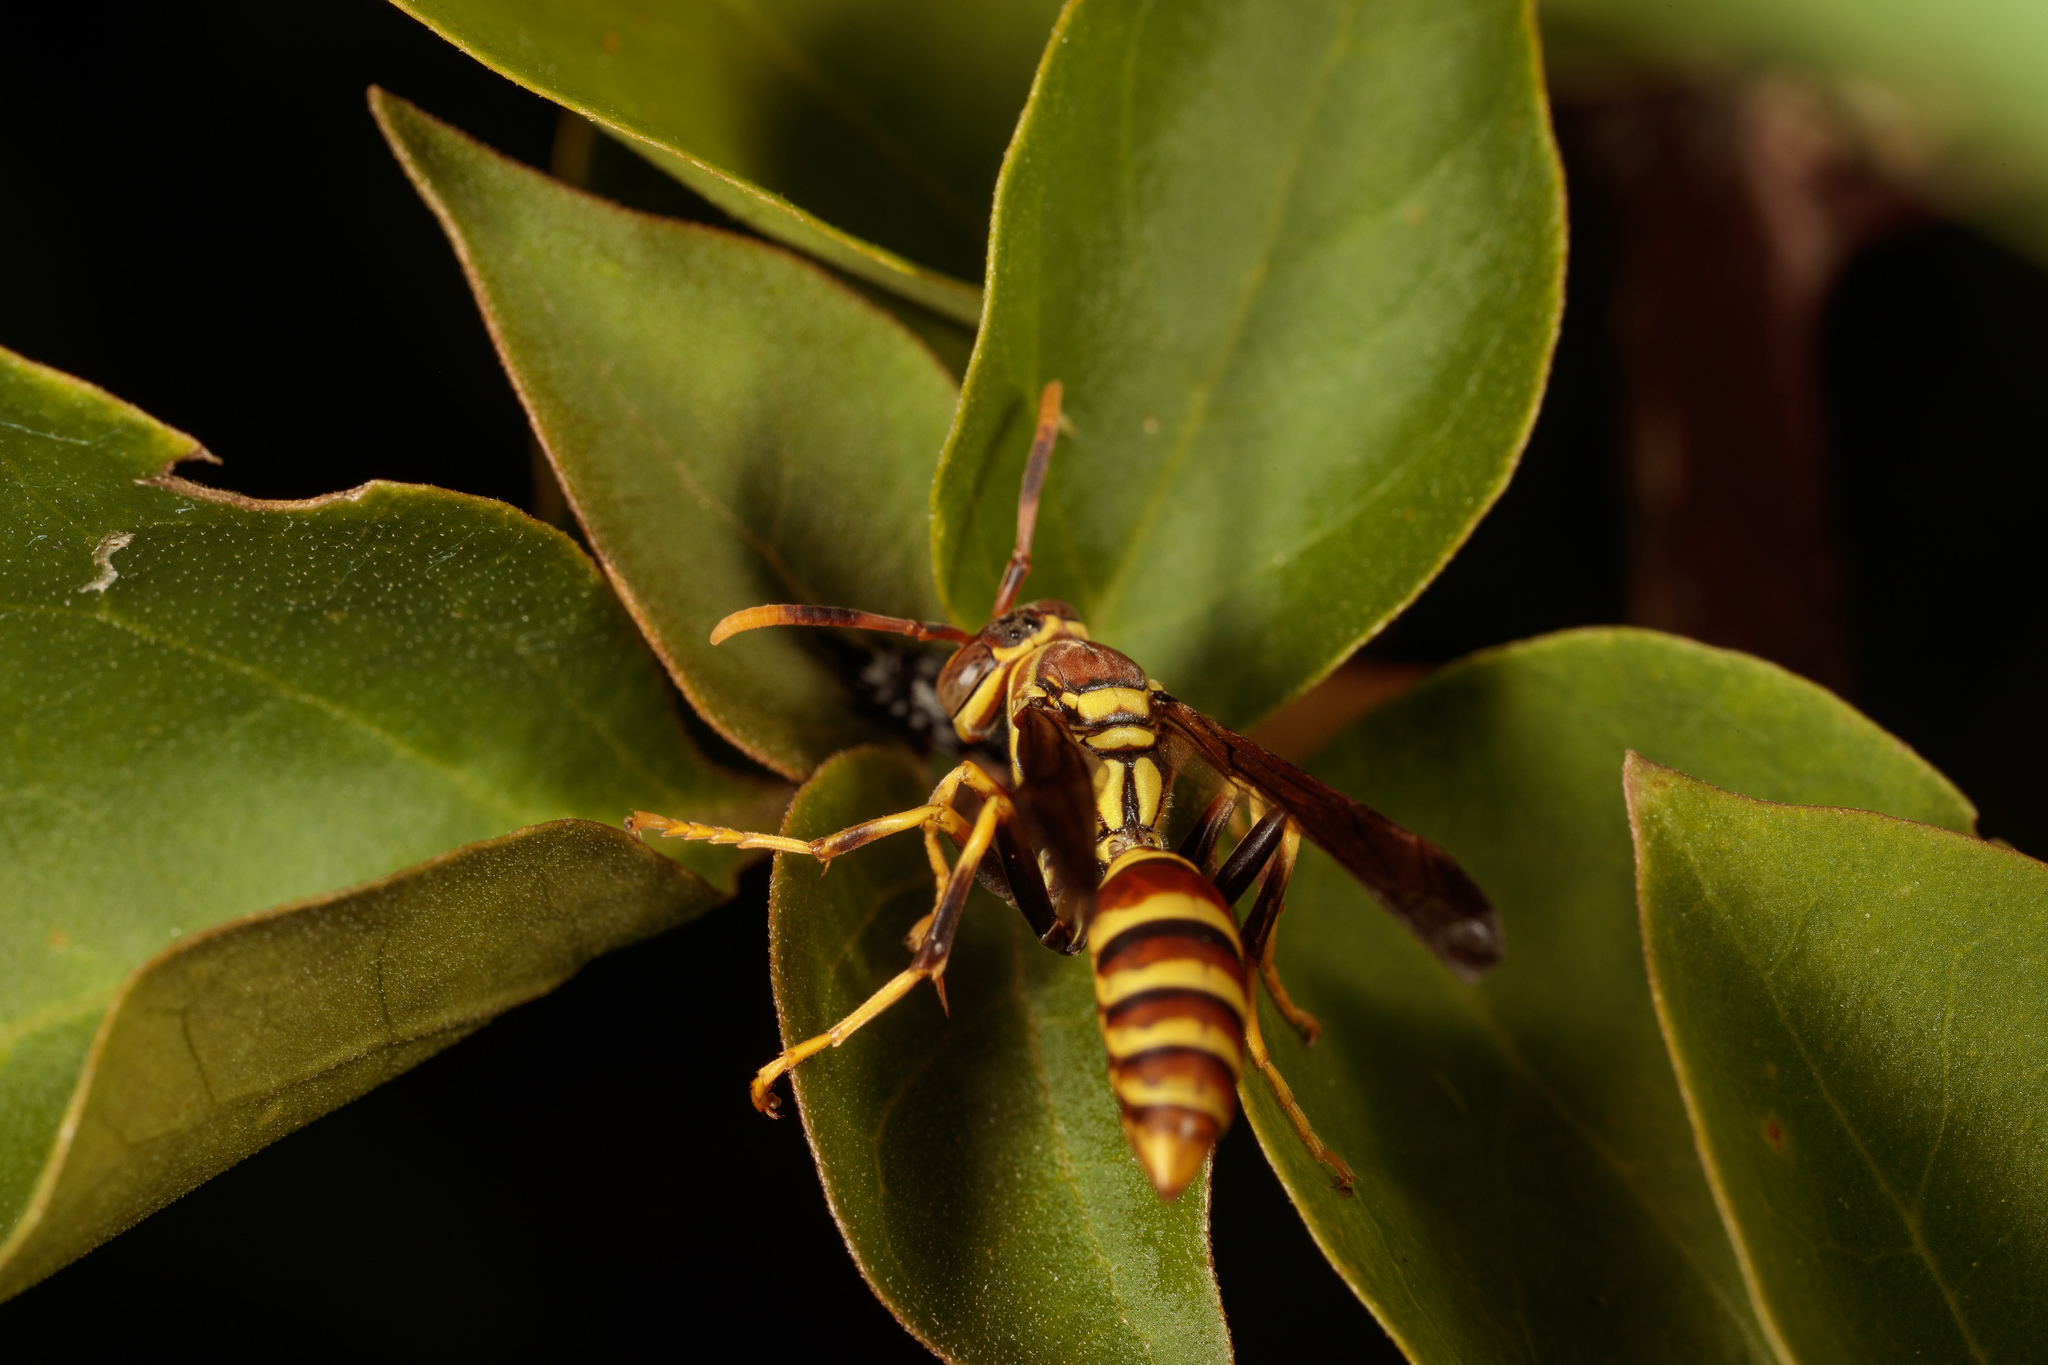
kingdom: Animalia
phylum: Arthropoda
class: Insecta
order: Hymenoptera
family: Eumenidae
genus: Polistes
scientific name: Polistes exclamans
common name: Paper wasp
